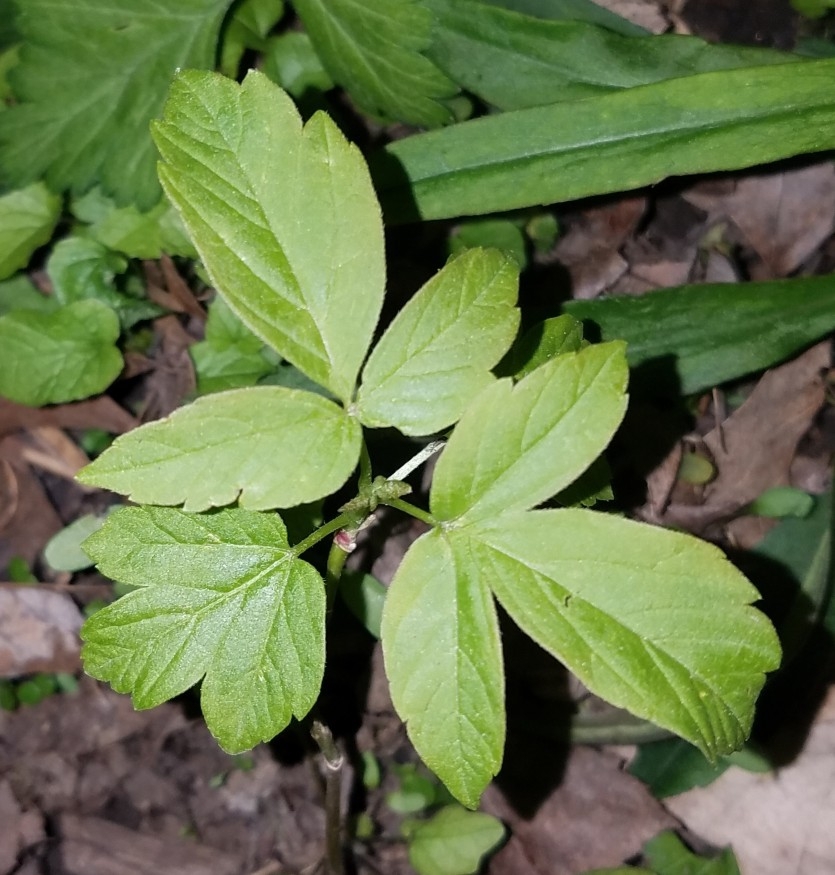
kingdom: Plantae
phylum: Tracheophyta
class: Magnoliopsida
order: Sapindales
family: Sapindaceae
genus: Acer
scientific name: Acer negundo
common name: Ashleaf maple
